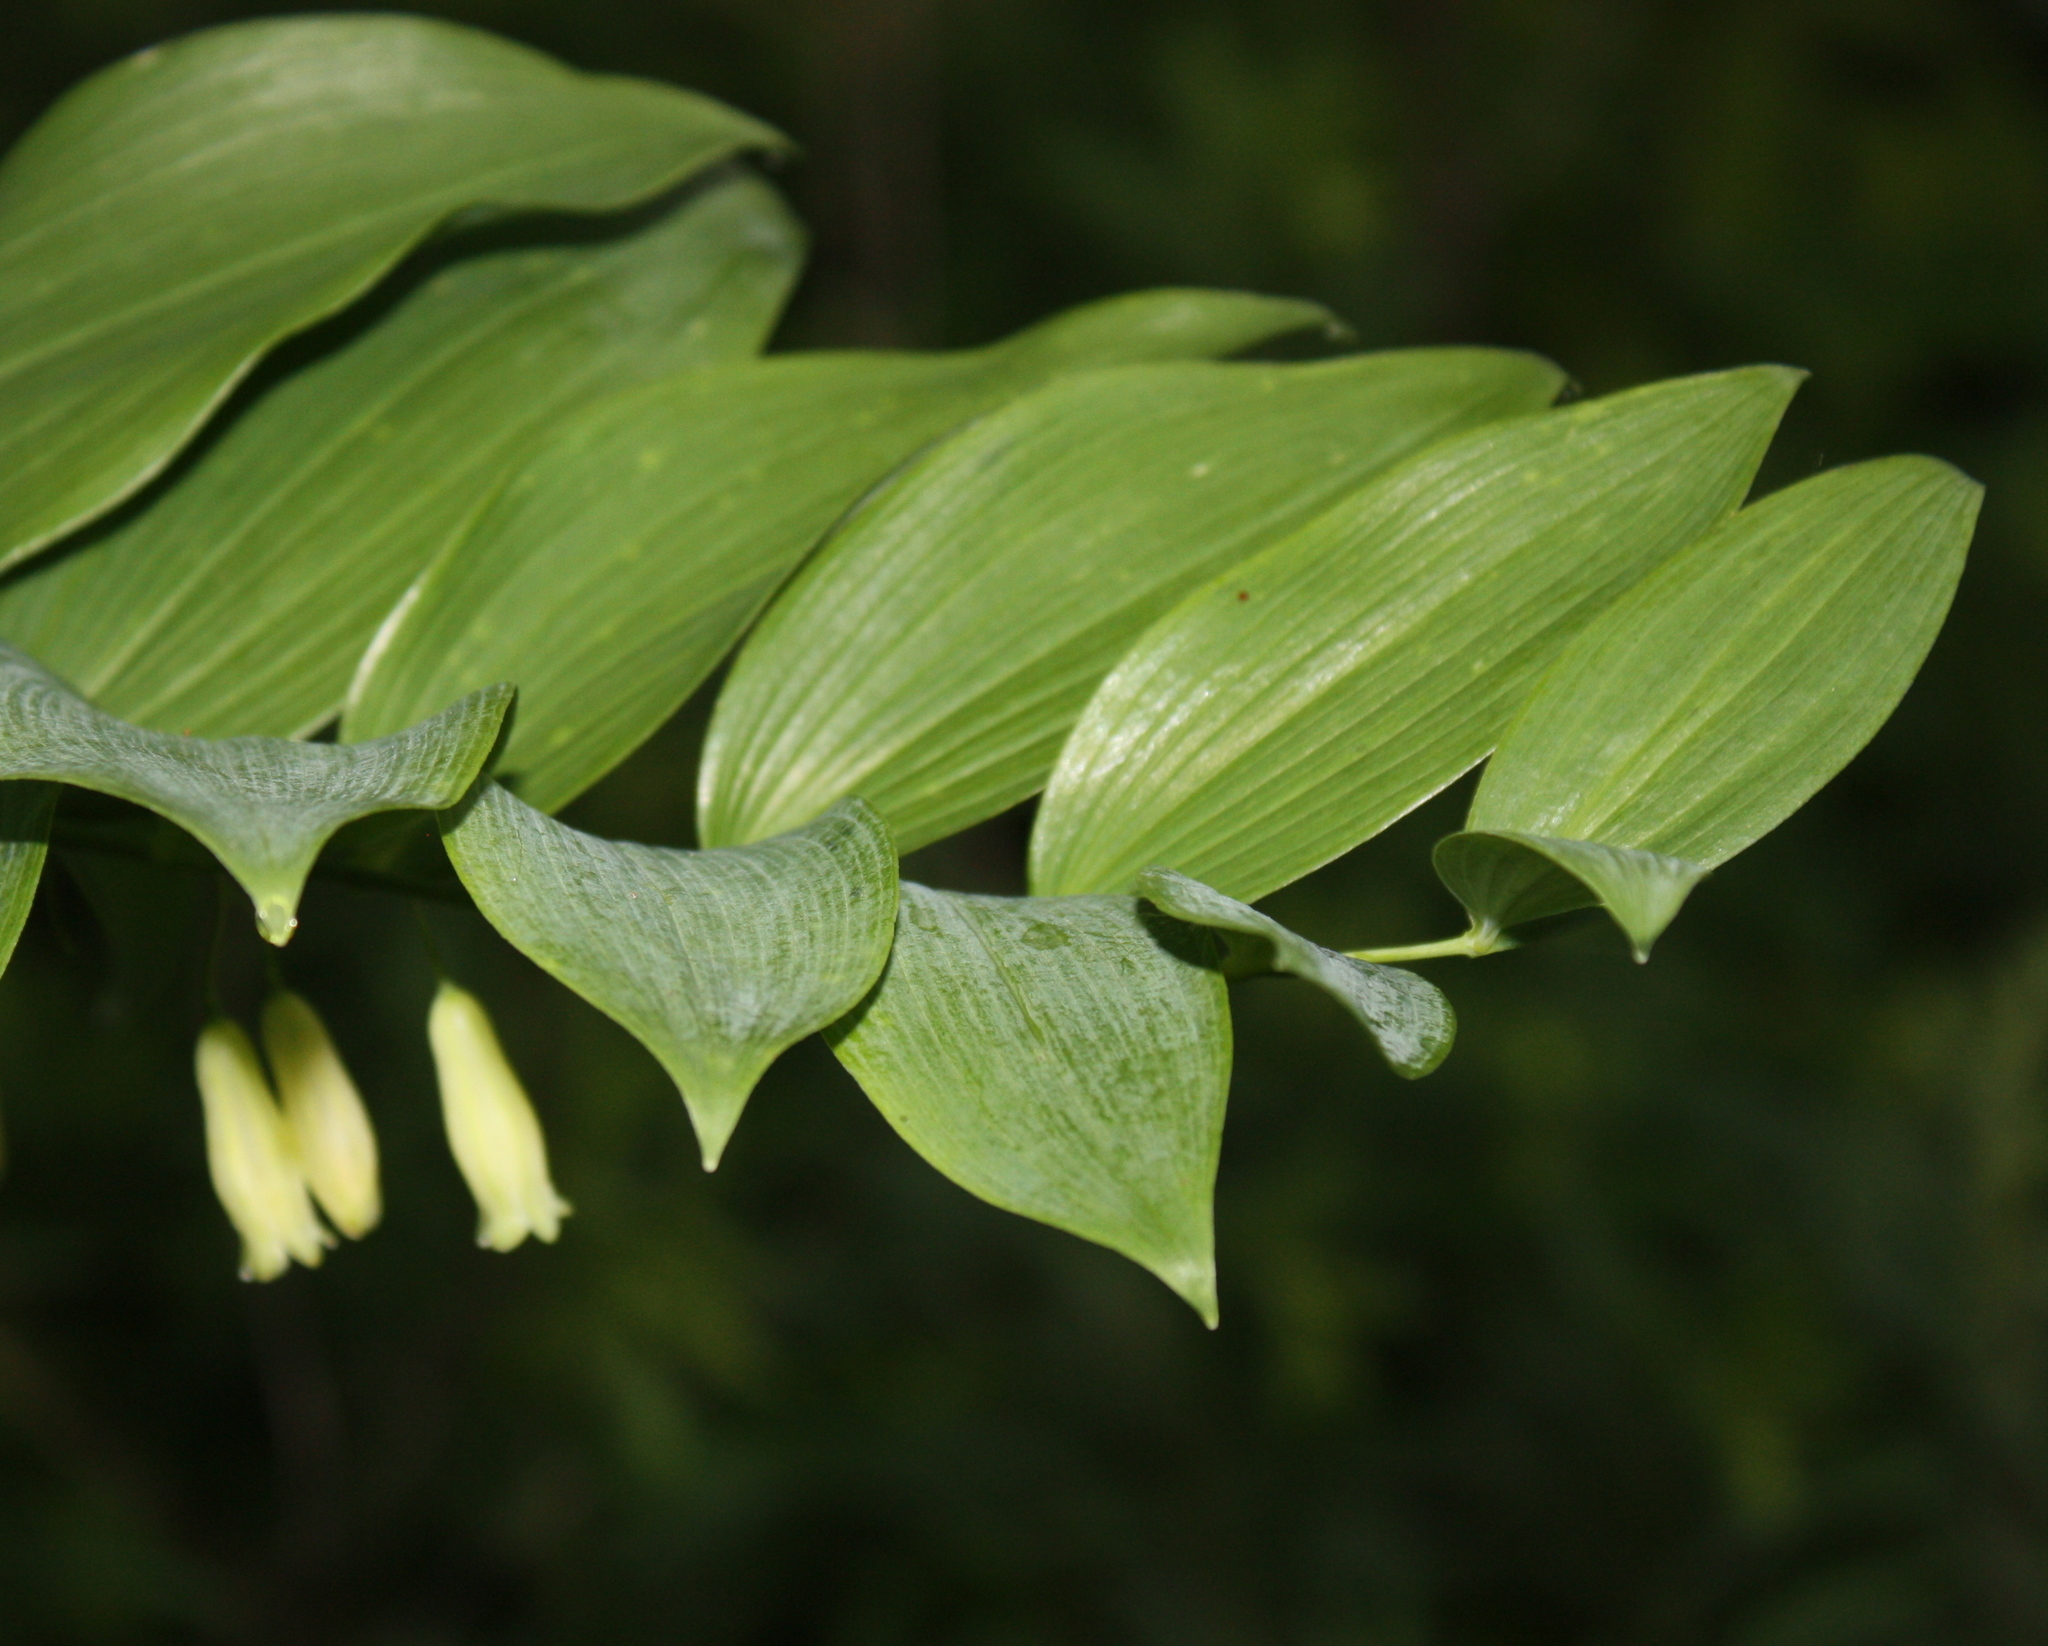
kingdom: Plantae
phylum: Tracheophyta
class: Liliopsida
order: Asparagales
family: Asparagaceae
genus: Polygonatum
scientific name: Polygonatum biflorum
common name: American solomon's-seal
